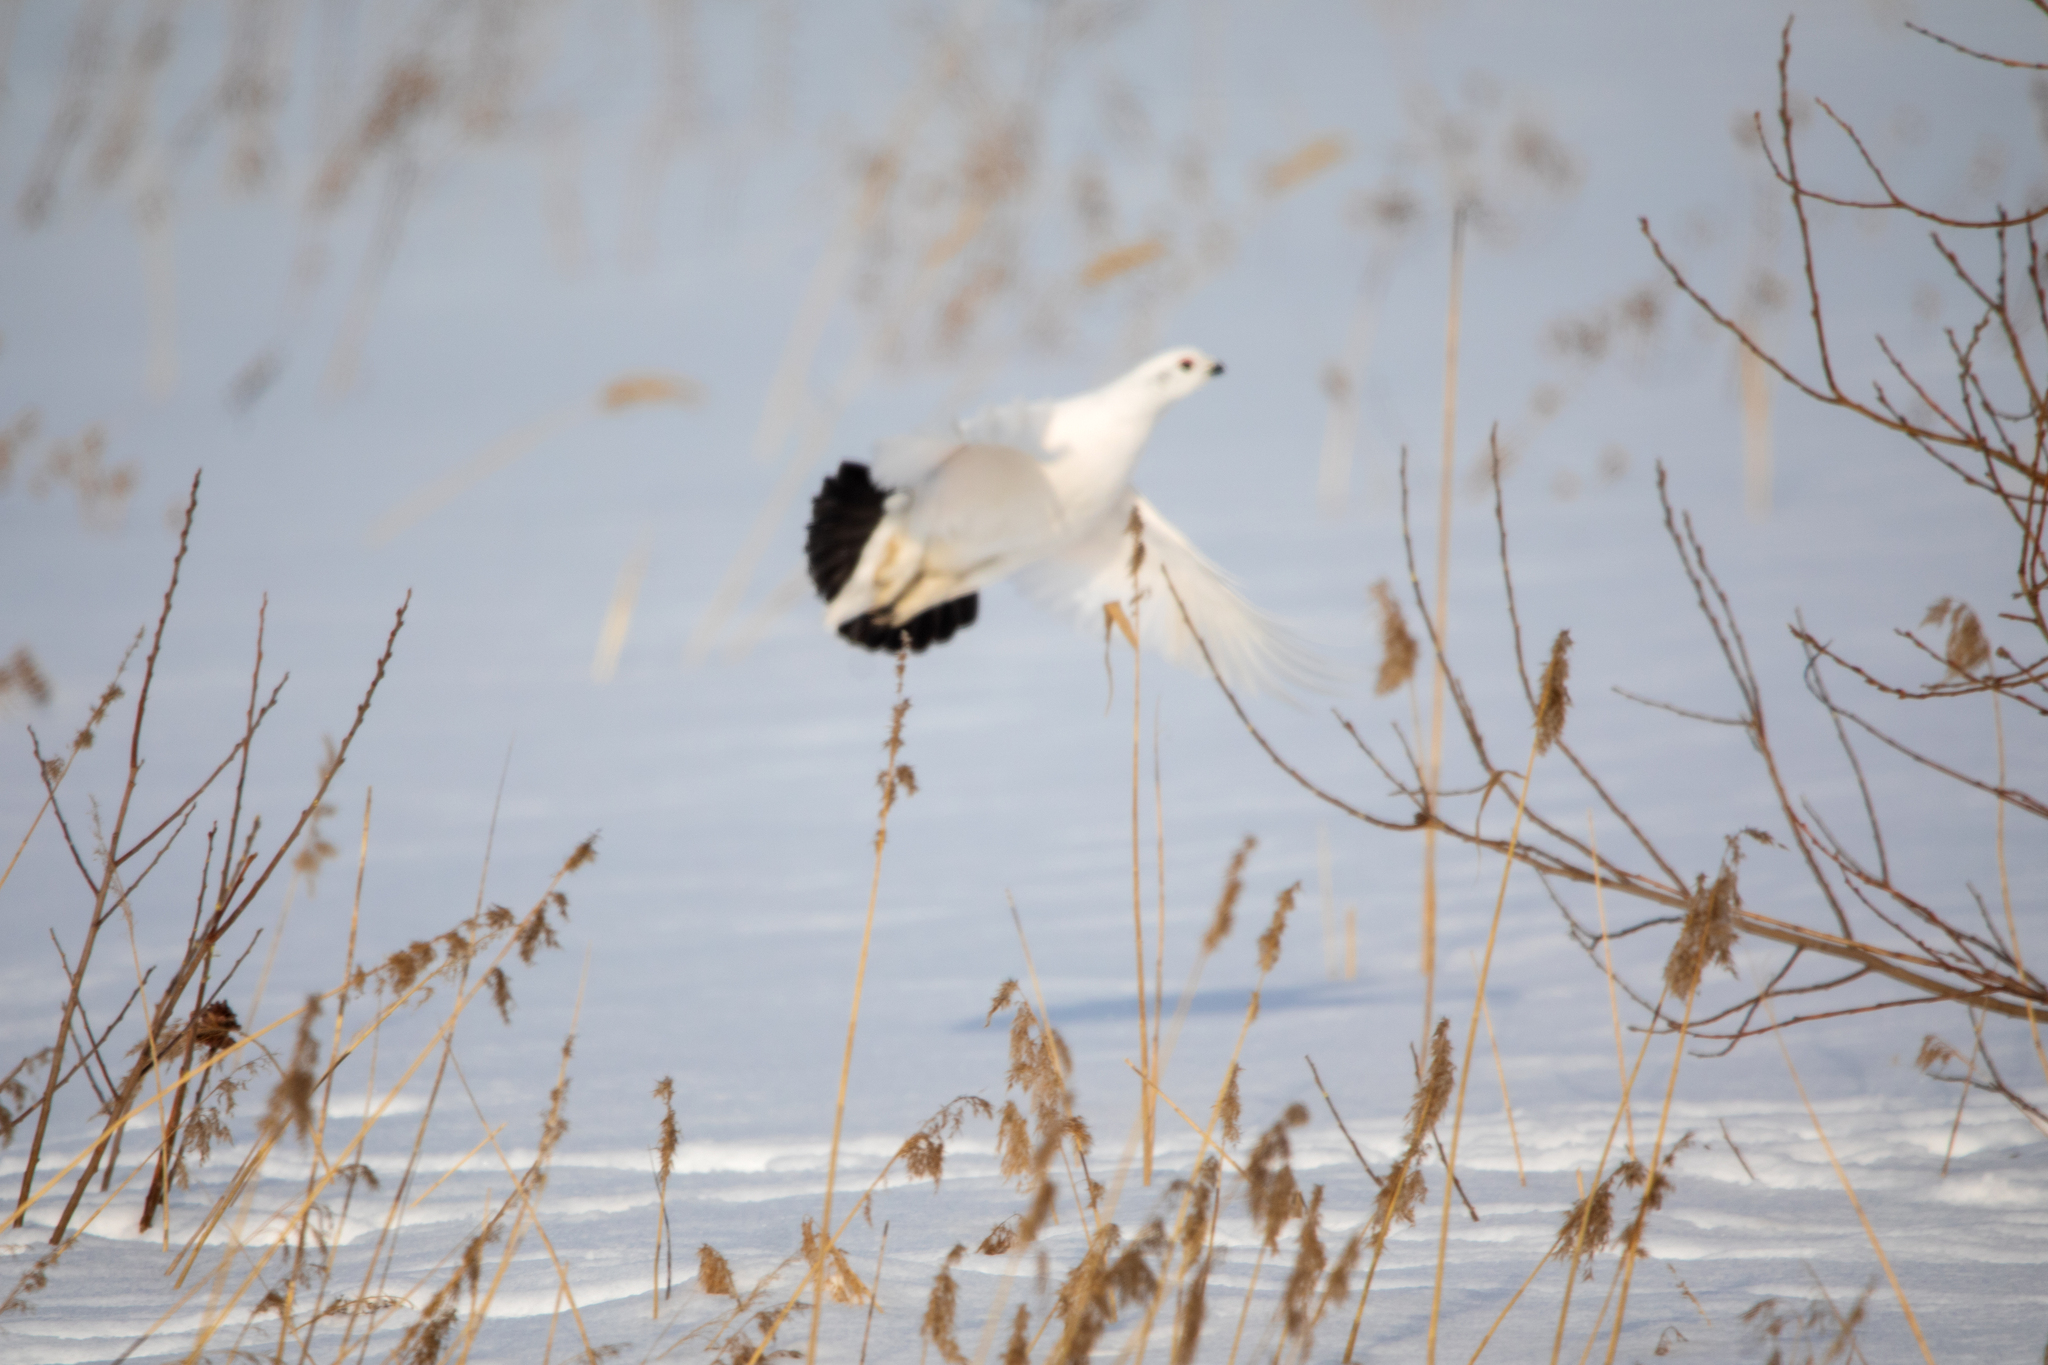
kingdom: Animalia
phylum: Chordata
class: Aves
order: Galliformes
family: Phasianidae
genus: Lagopus
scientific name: Lagopus lagopus
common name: Willow ptarmigan
